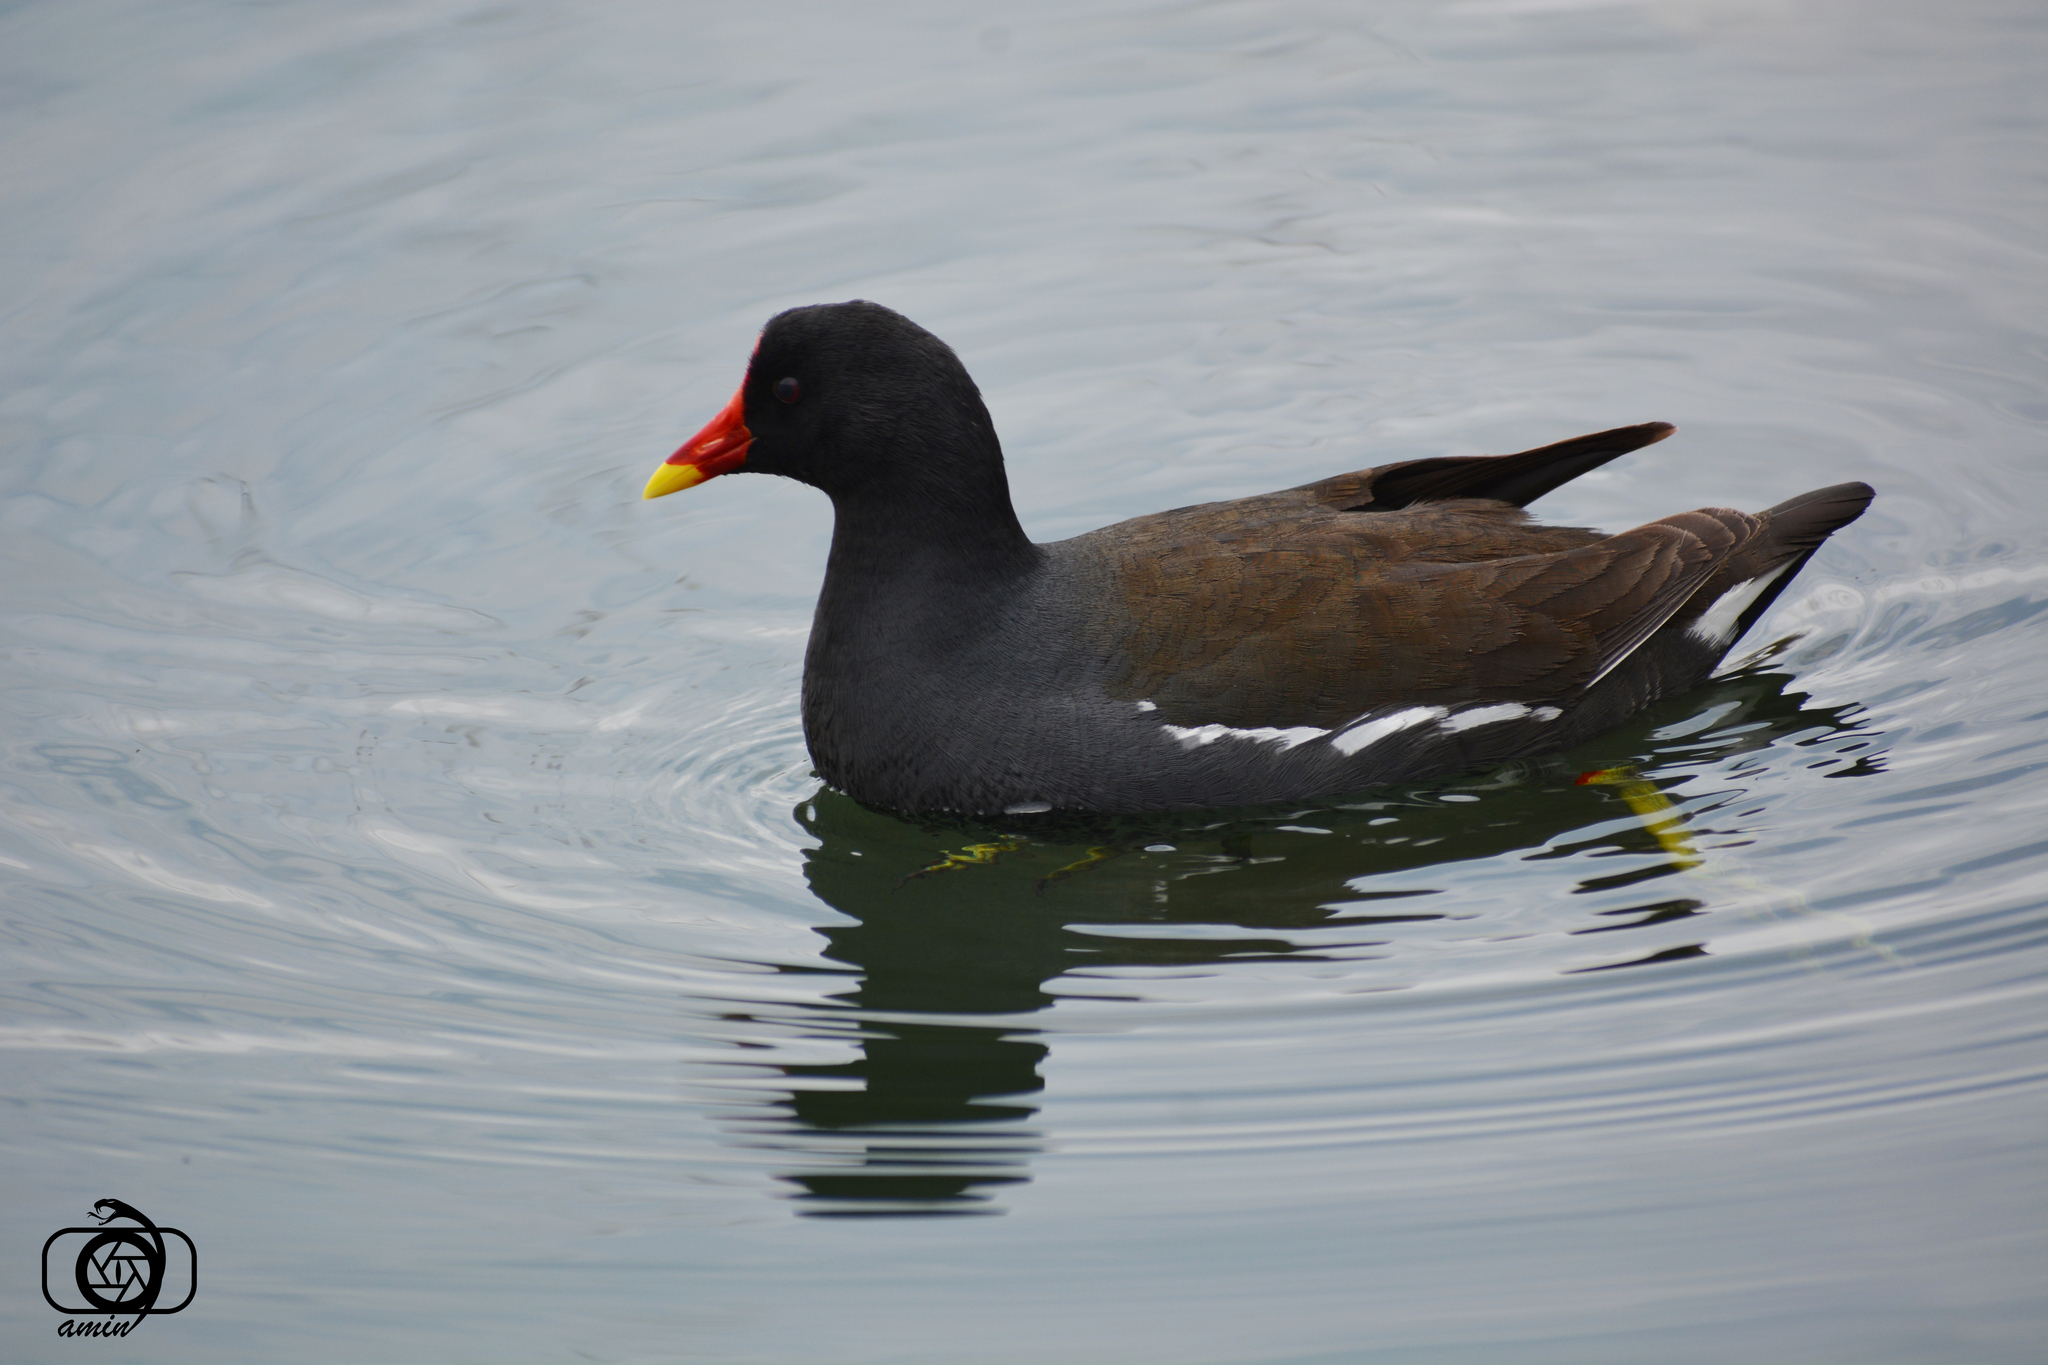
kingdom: Animalia
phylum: Chordata
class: Aves
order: Gruiformes
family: Rallidae
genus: Gallinula
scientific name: Gallinula chloropus
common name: Common moorhen
